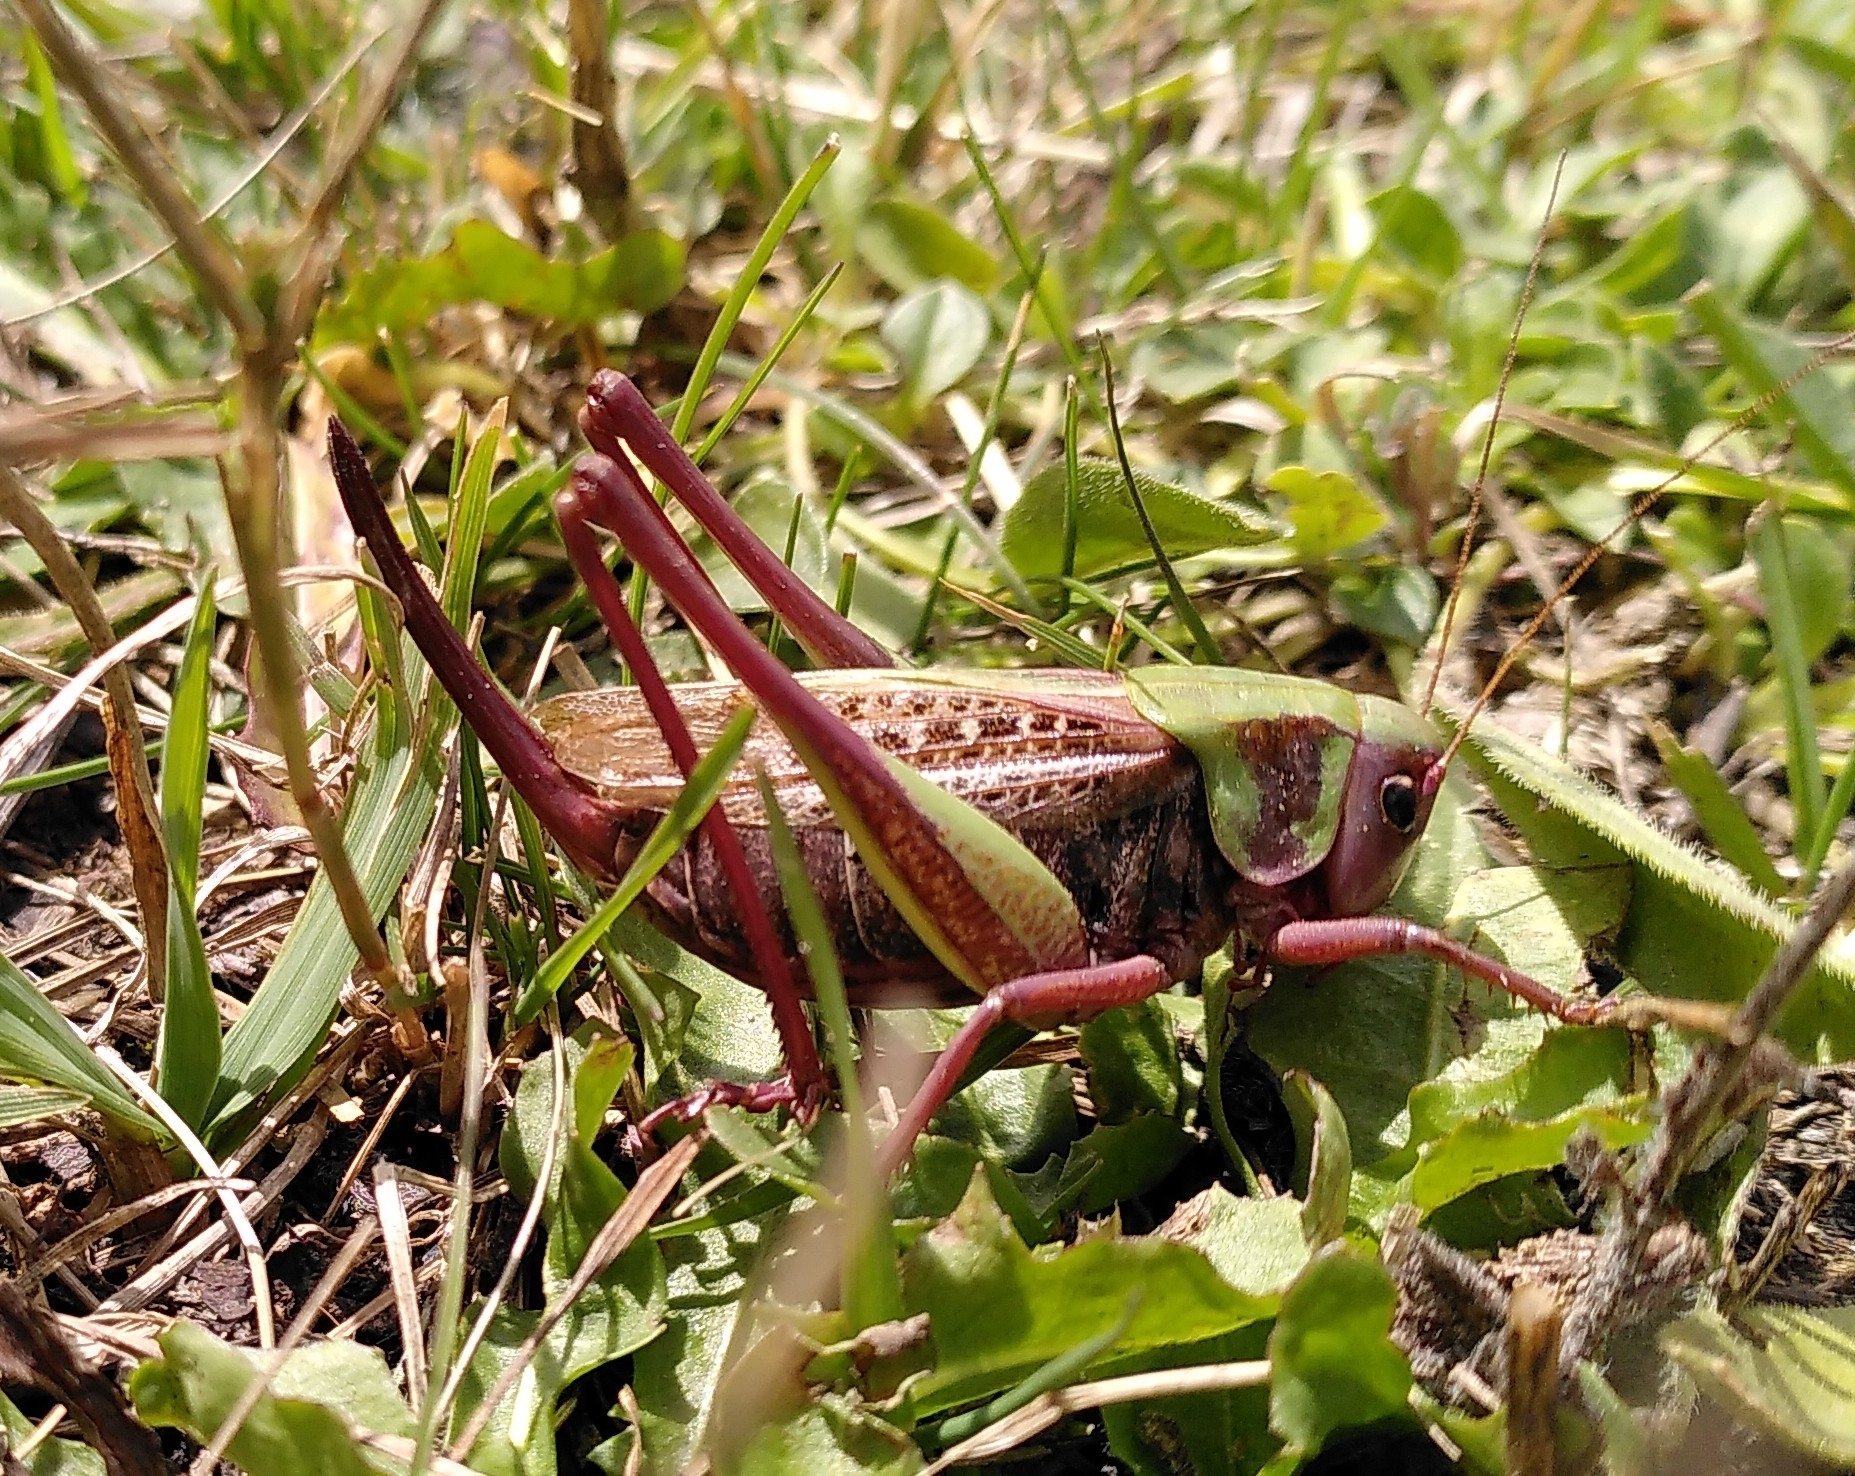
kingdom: Animalia
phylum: Arthropoda
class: Insecta
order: Orthoptera
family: Tettigoniidae
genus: Decticus
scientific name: Decticus verrucivorus
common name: Wart-biter
